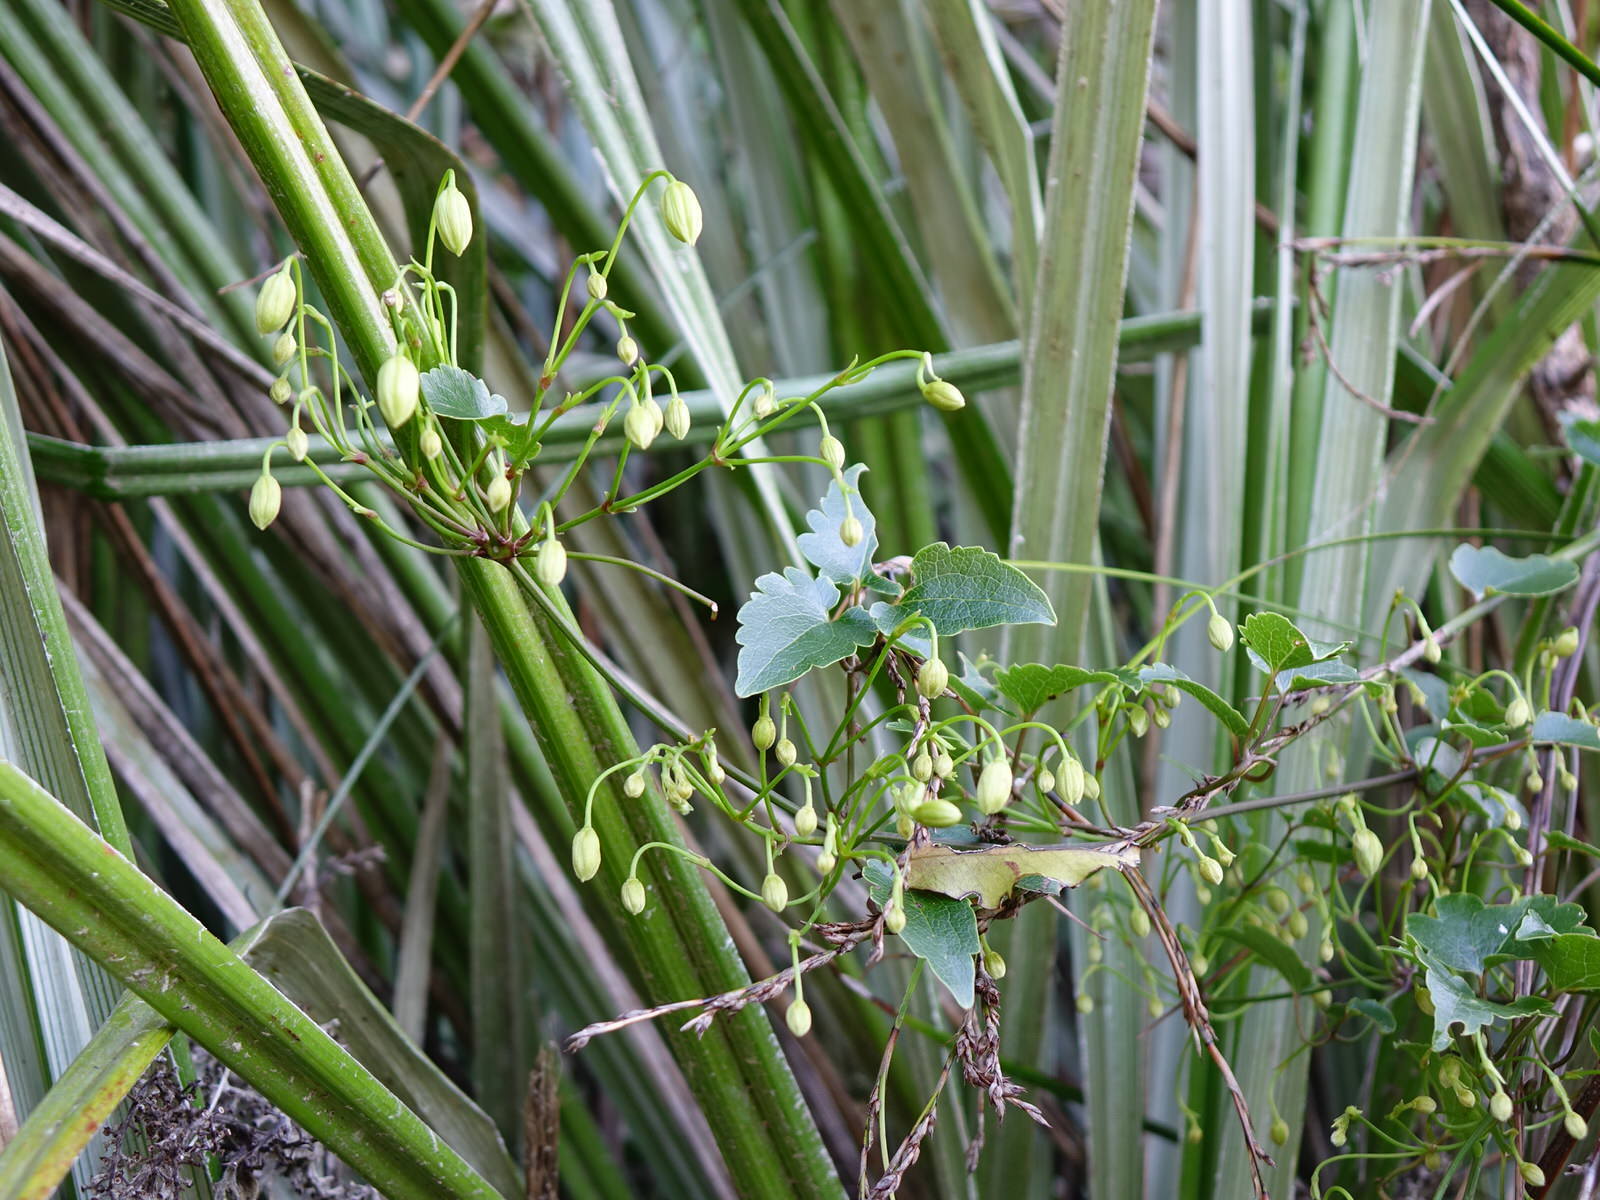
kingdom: Plantae
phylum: Tracheophyta
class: Magnoliopsida
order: Ranunculales
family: Ranunculaceae
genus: Clematis
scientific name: Clematis forsteri
